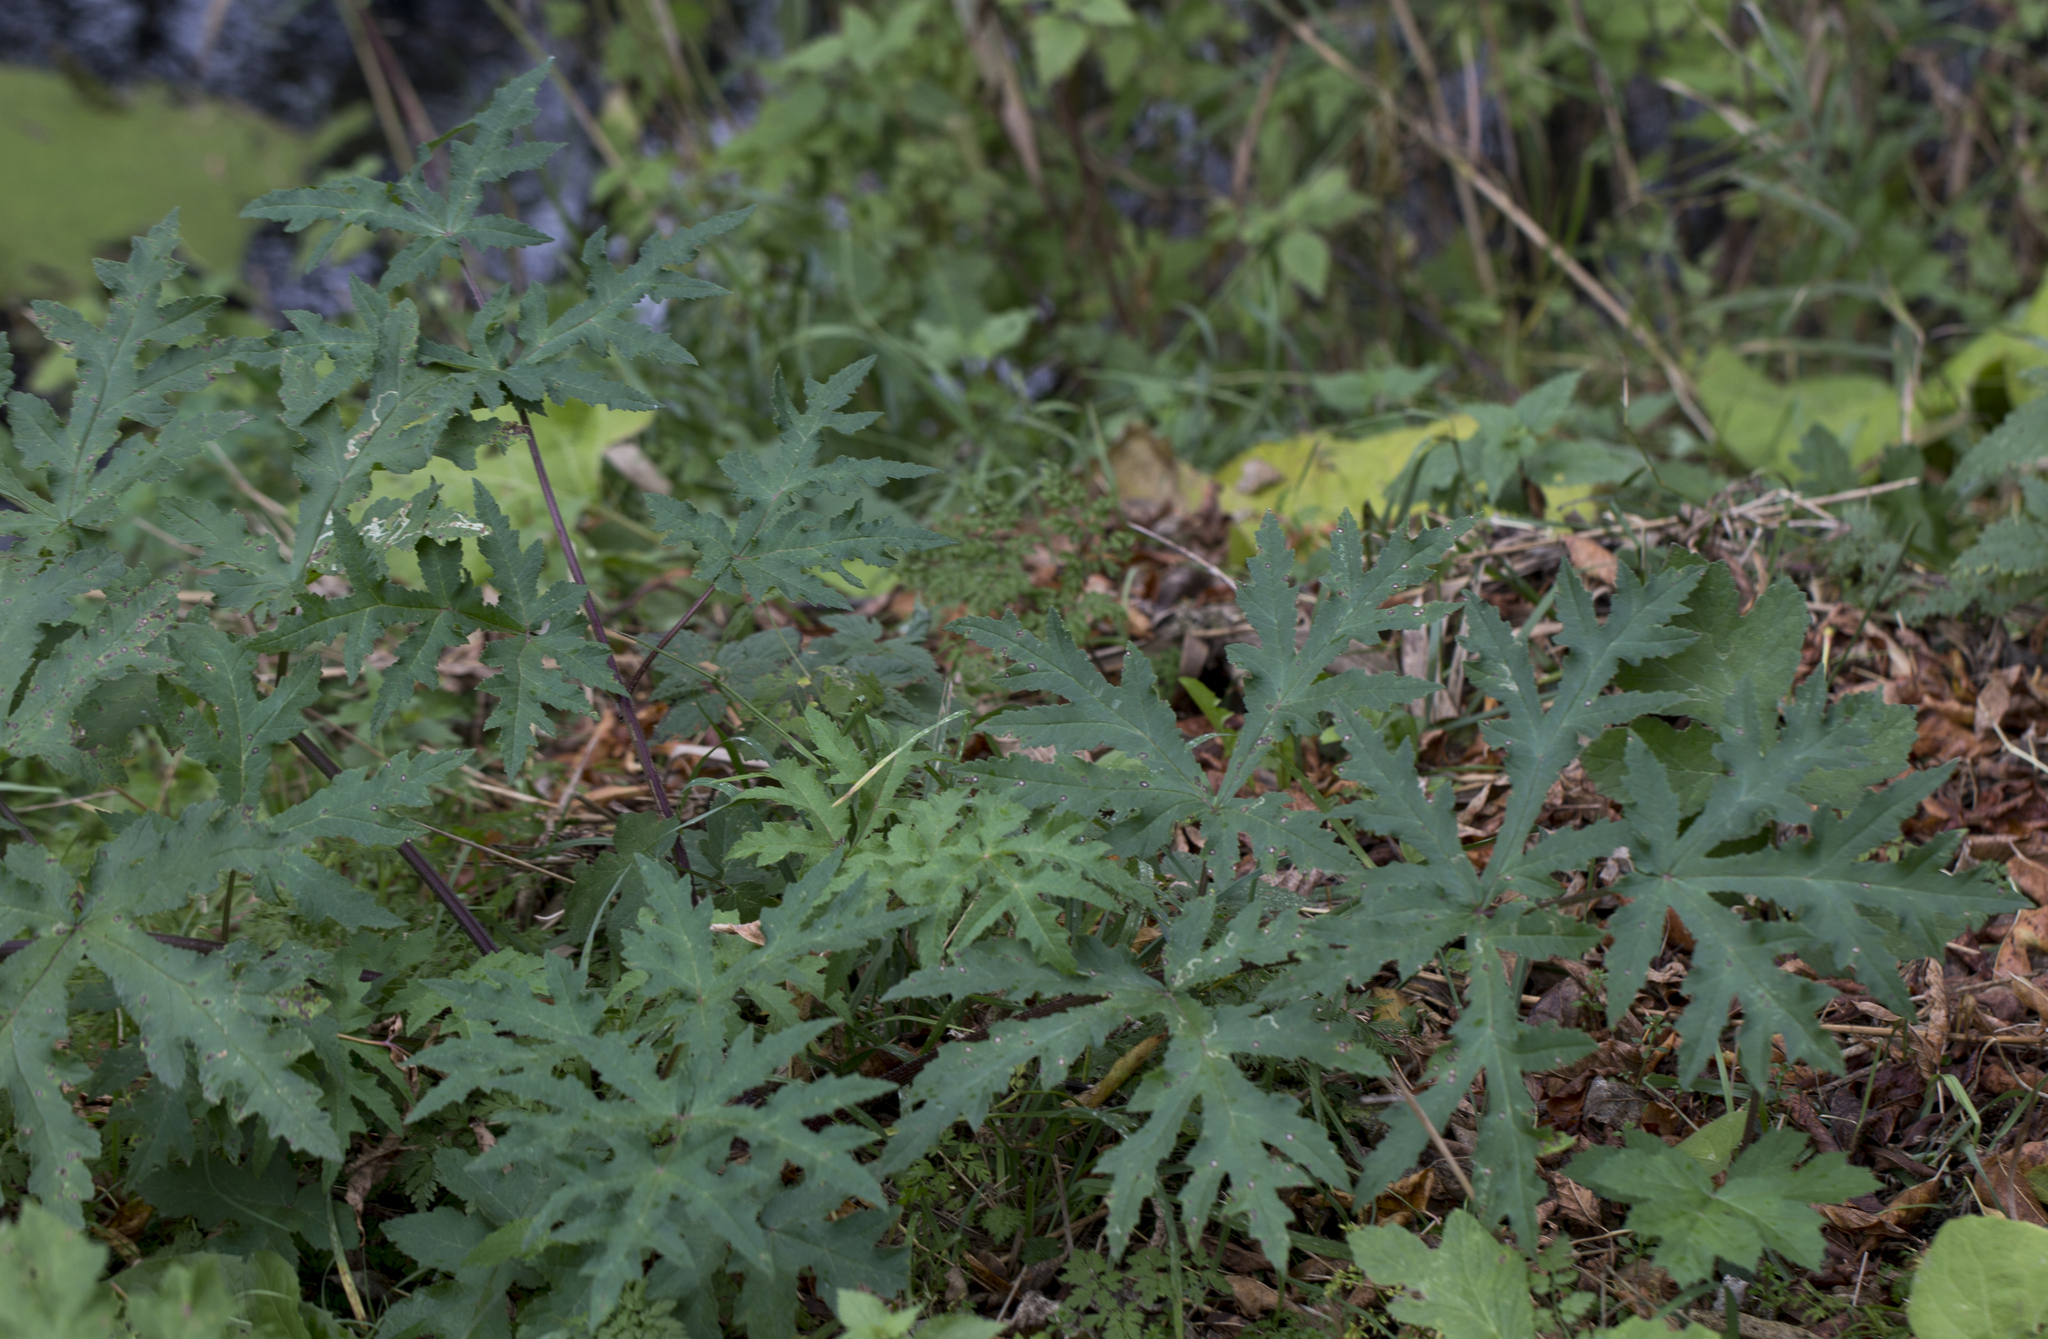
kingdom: Plantae
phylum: Tracheophyta
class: Magnoliopsida
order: Apiales
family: Apiaceae
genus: Heracleum
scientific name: Heracleum sphondylium
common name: Hogweed
